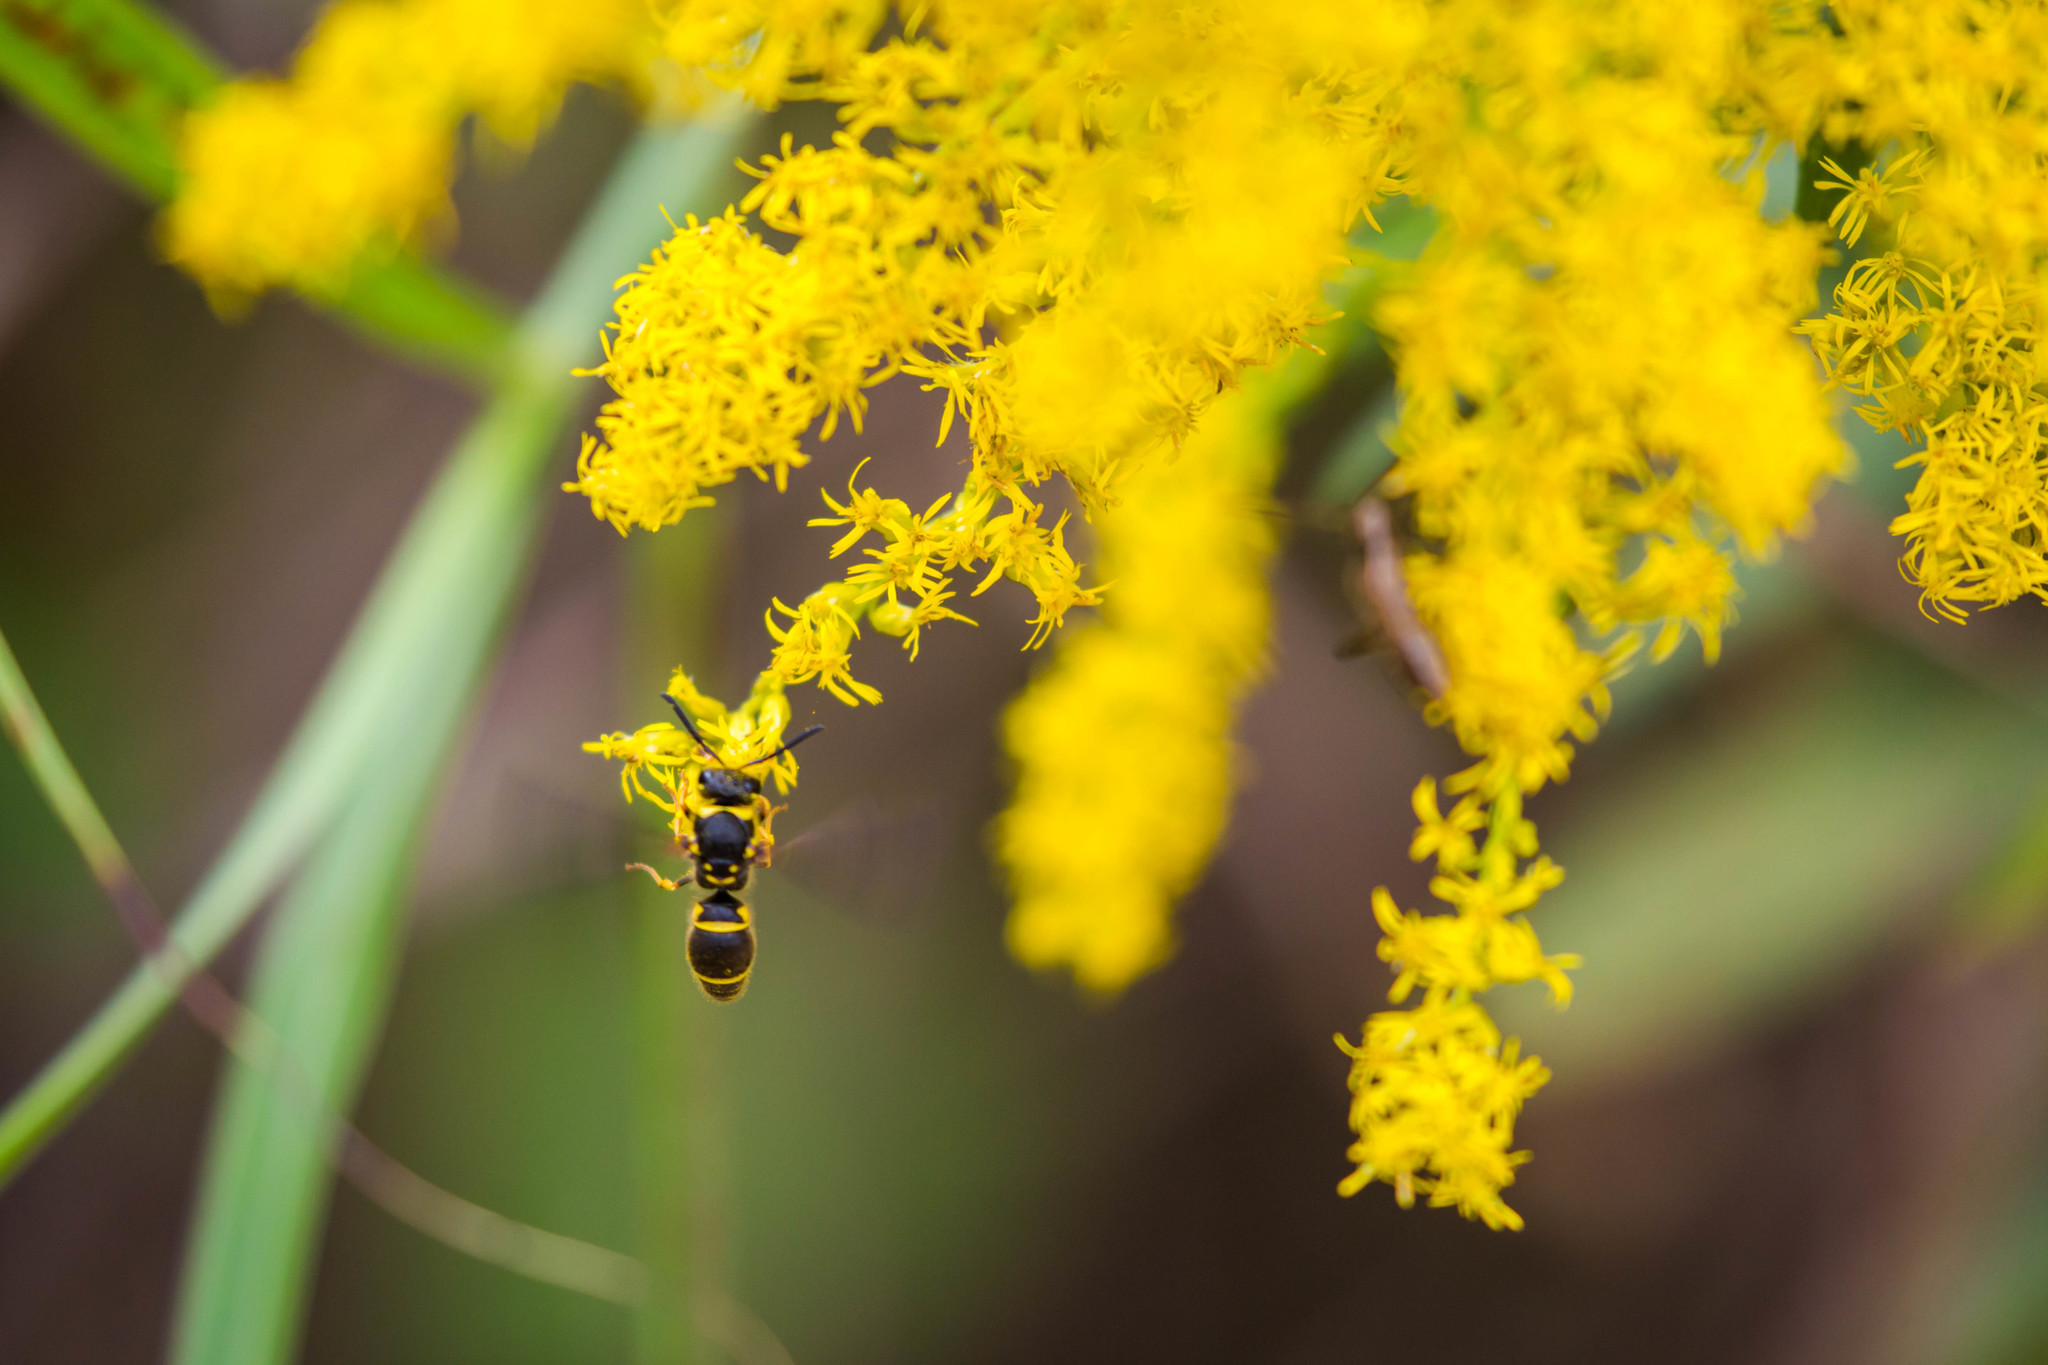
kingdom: Animalia
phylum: Arthropoda
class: Insecta
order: Hymenoptera
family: Vespidae
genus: Ancistrocerus
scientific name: Ancistrocerus campestris
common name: Smiling mason wasp
